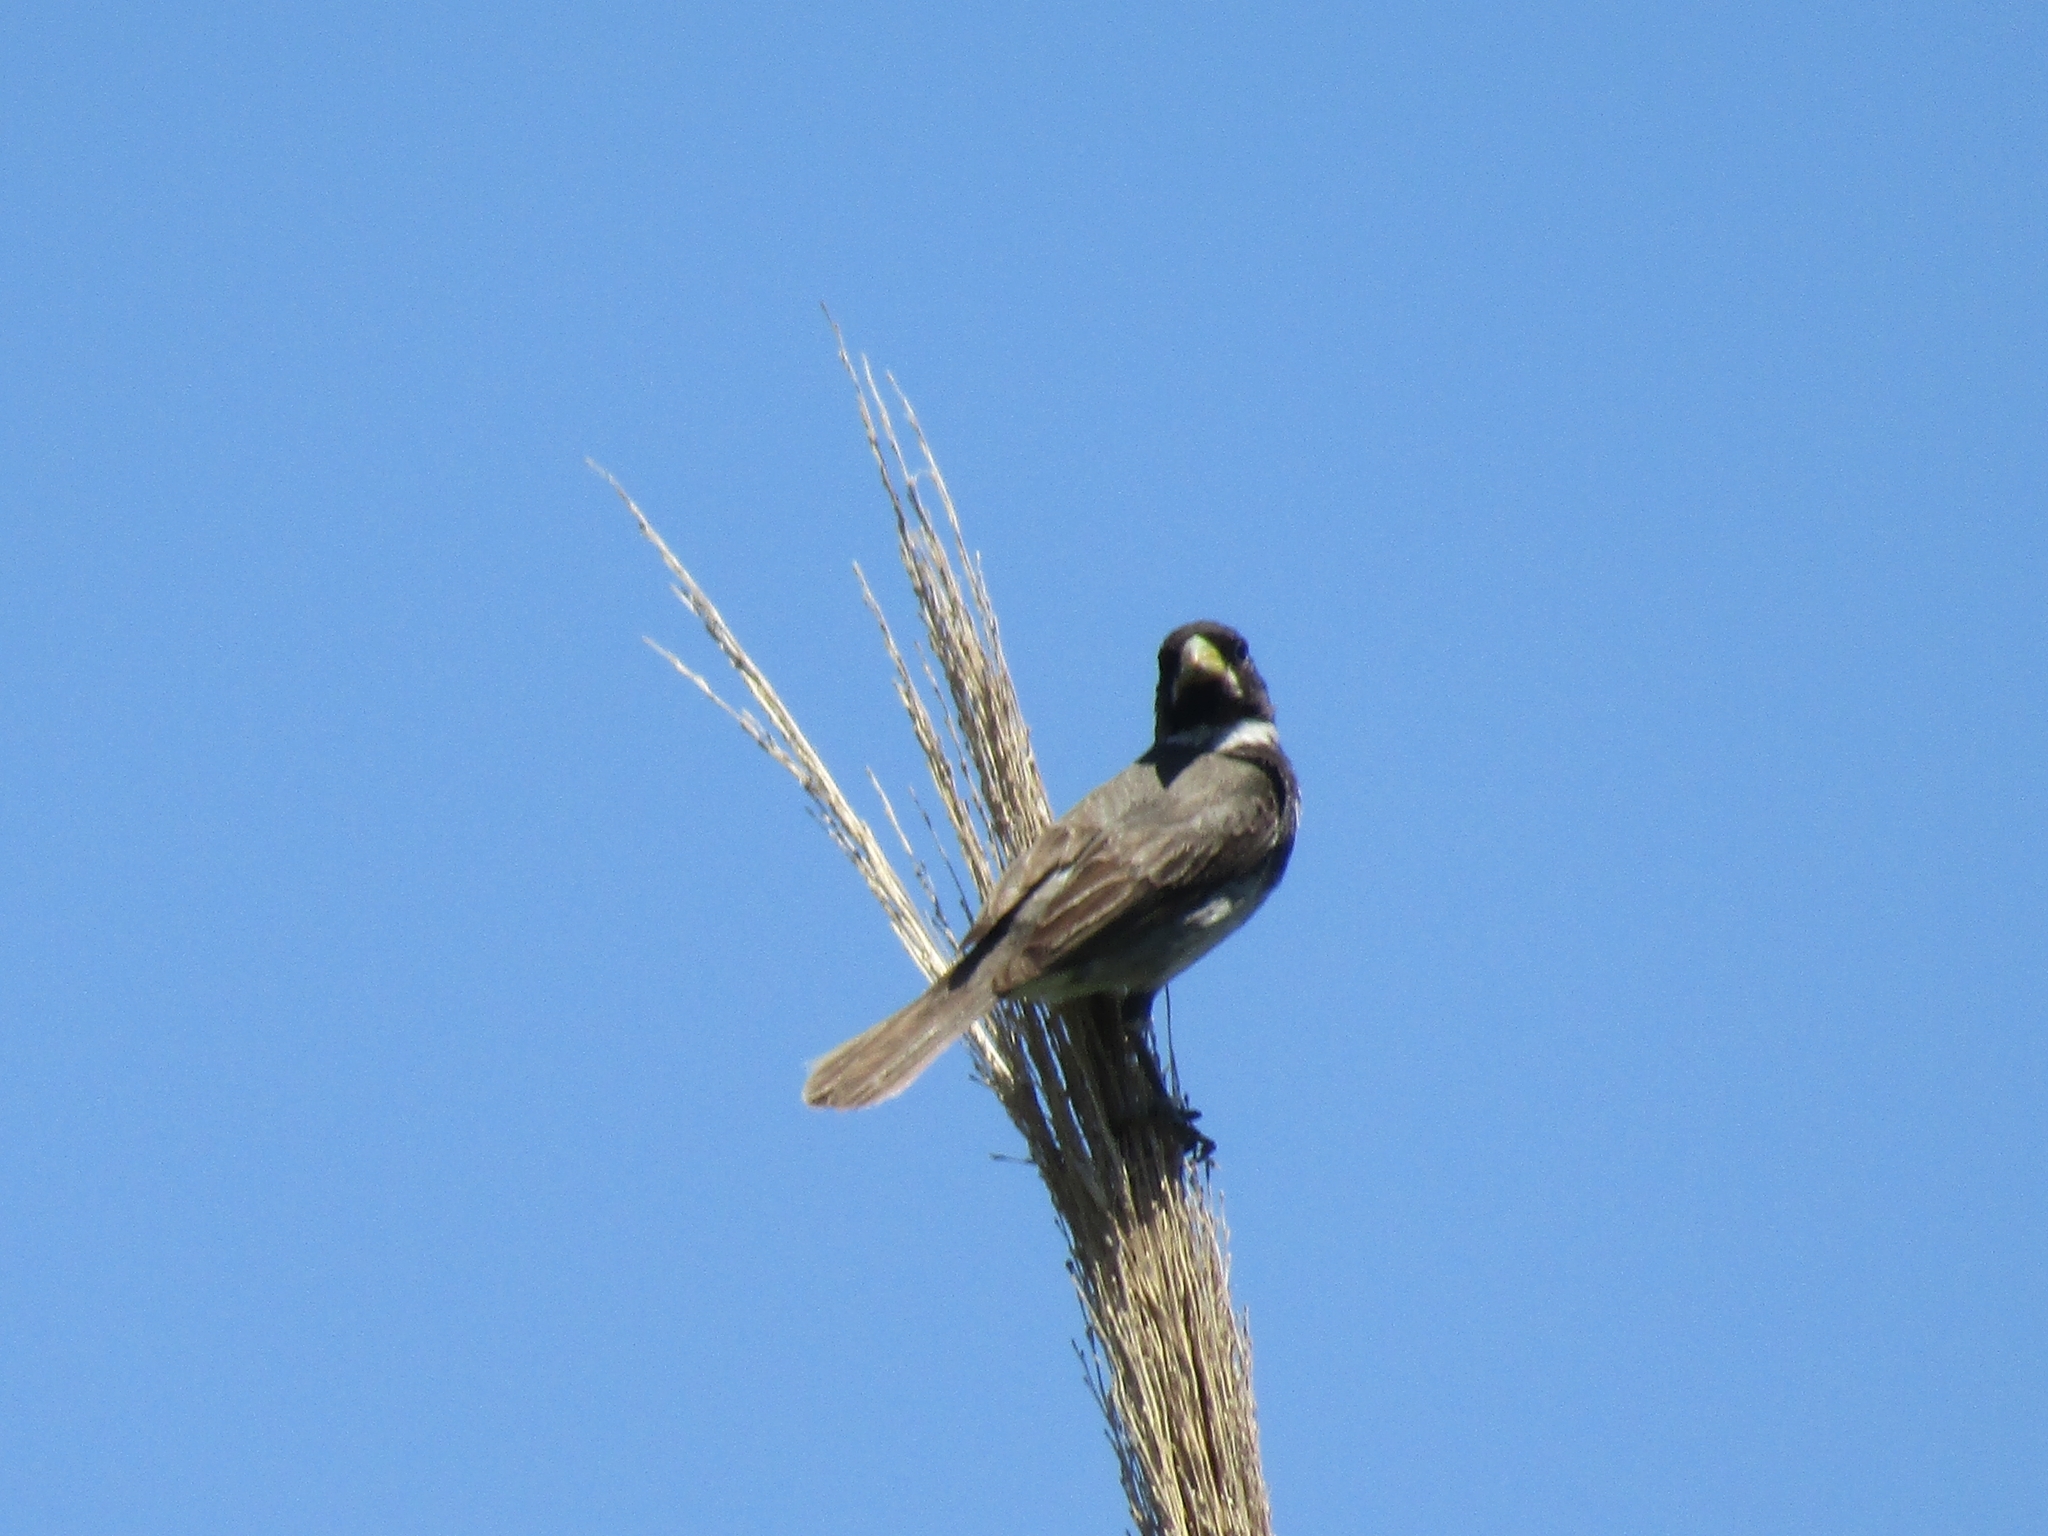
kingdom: Animalia
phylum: Chordata
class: Aves
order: Passeriformes
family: Thraupidae
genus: Sporophila
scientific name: Sporophila caerulescens
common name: Double-collared seedeater
